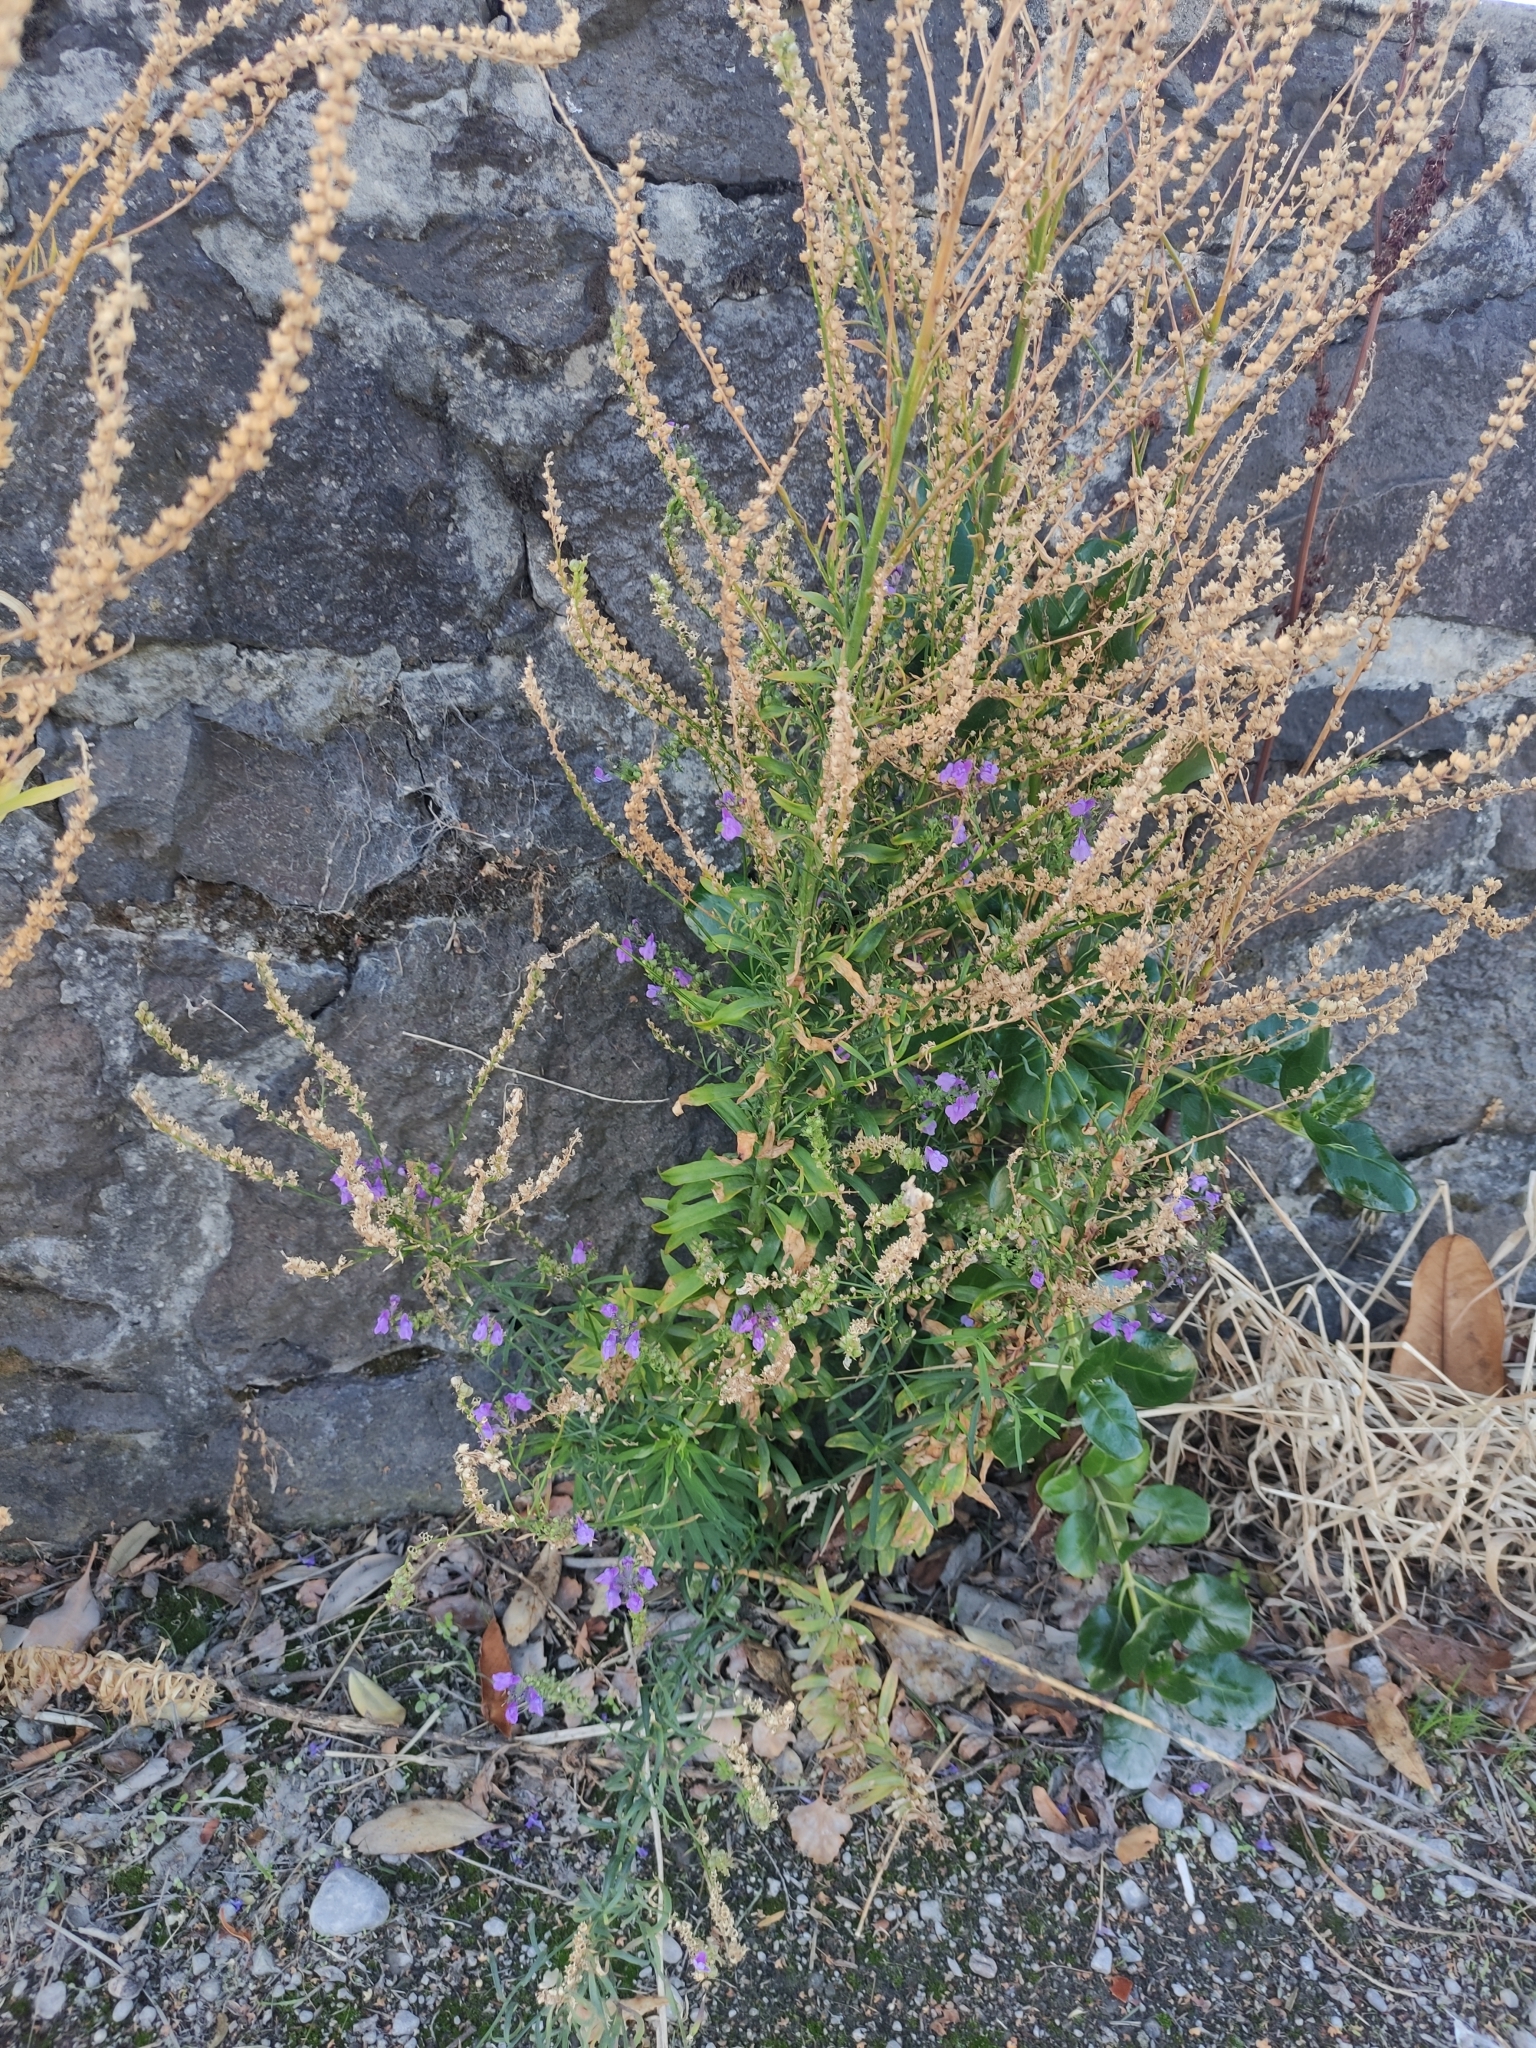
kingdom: Plantae
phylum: Tracheophyta
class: Magnoliopsida
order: Lamiales
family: Plantaginaceae
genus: Linaria
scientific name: Linaria purpurea
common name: Purple toadflax
